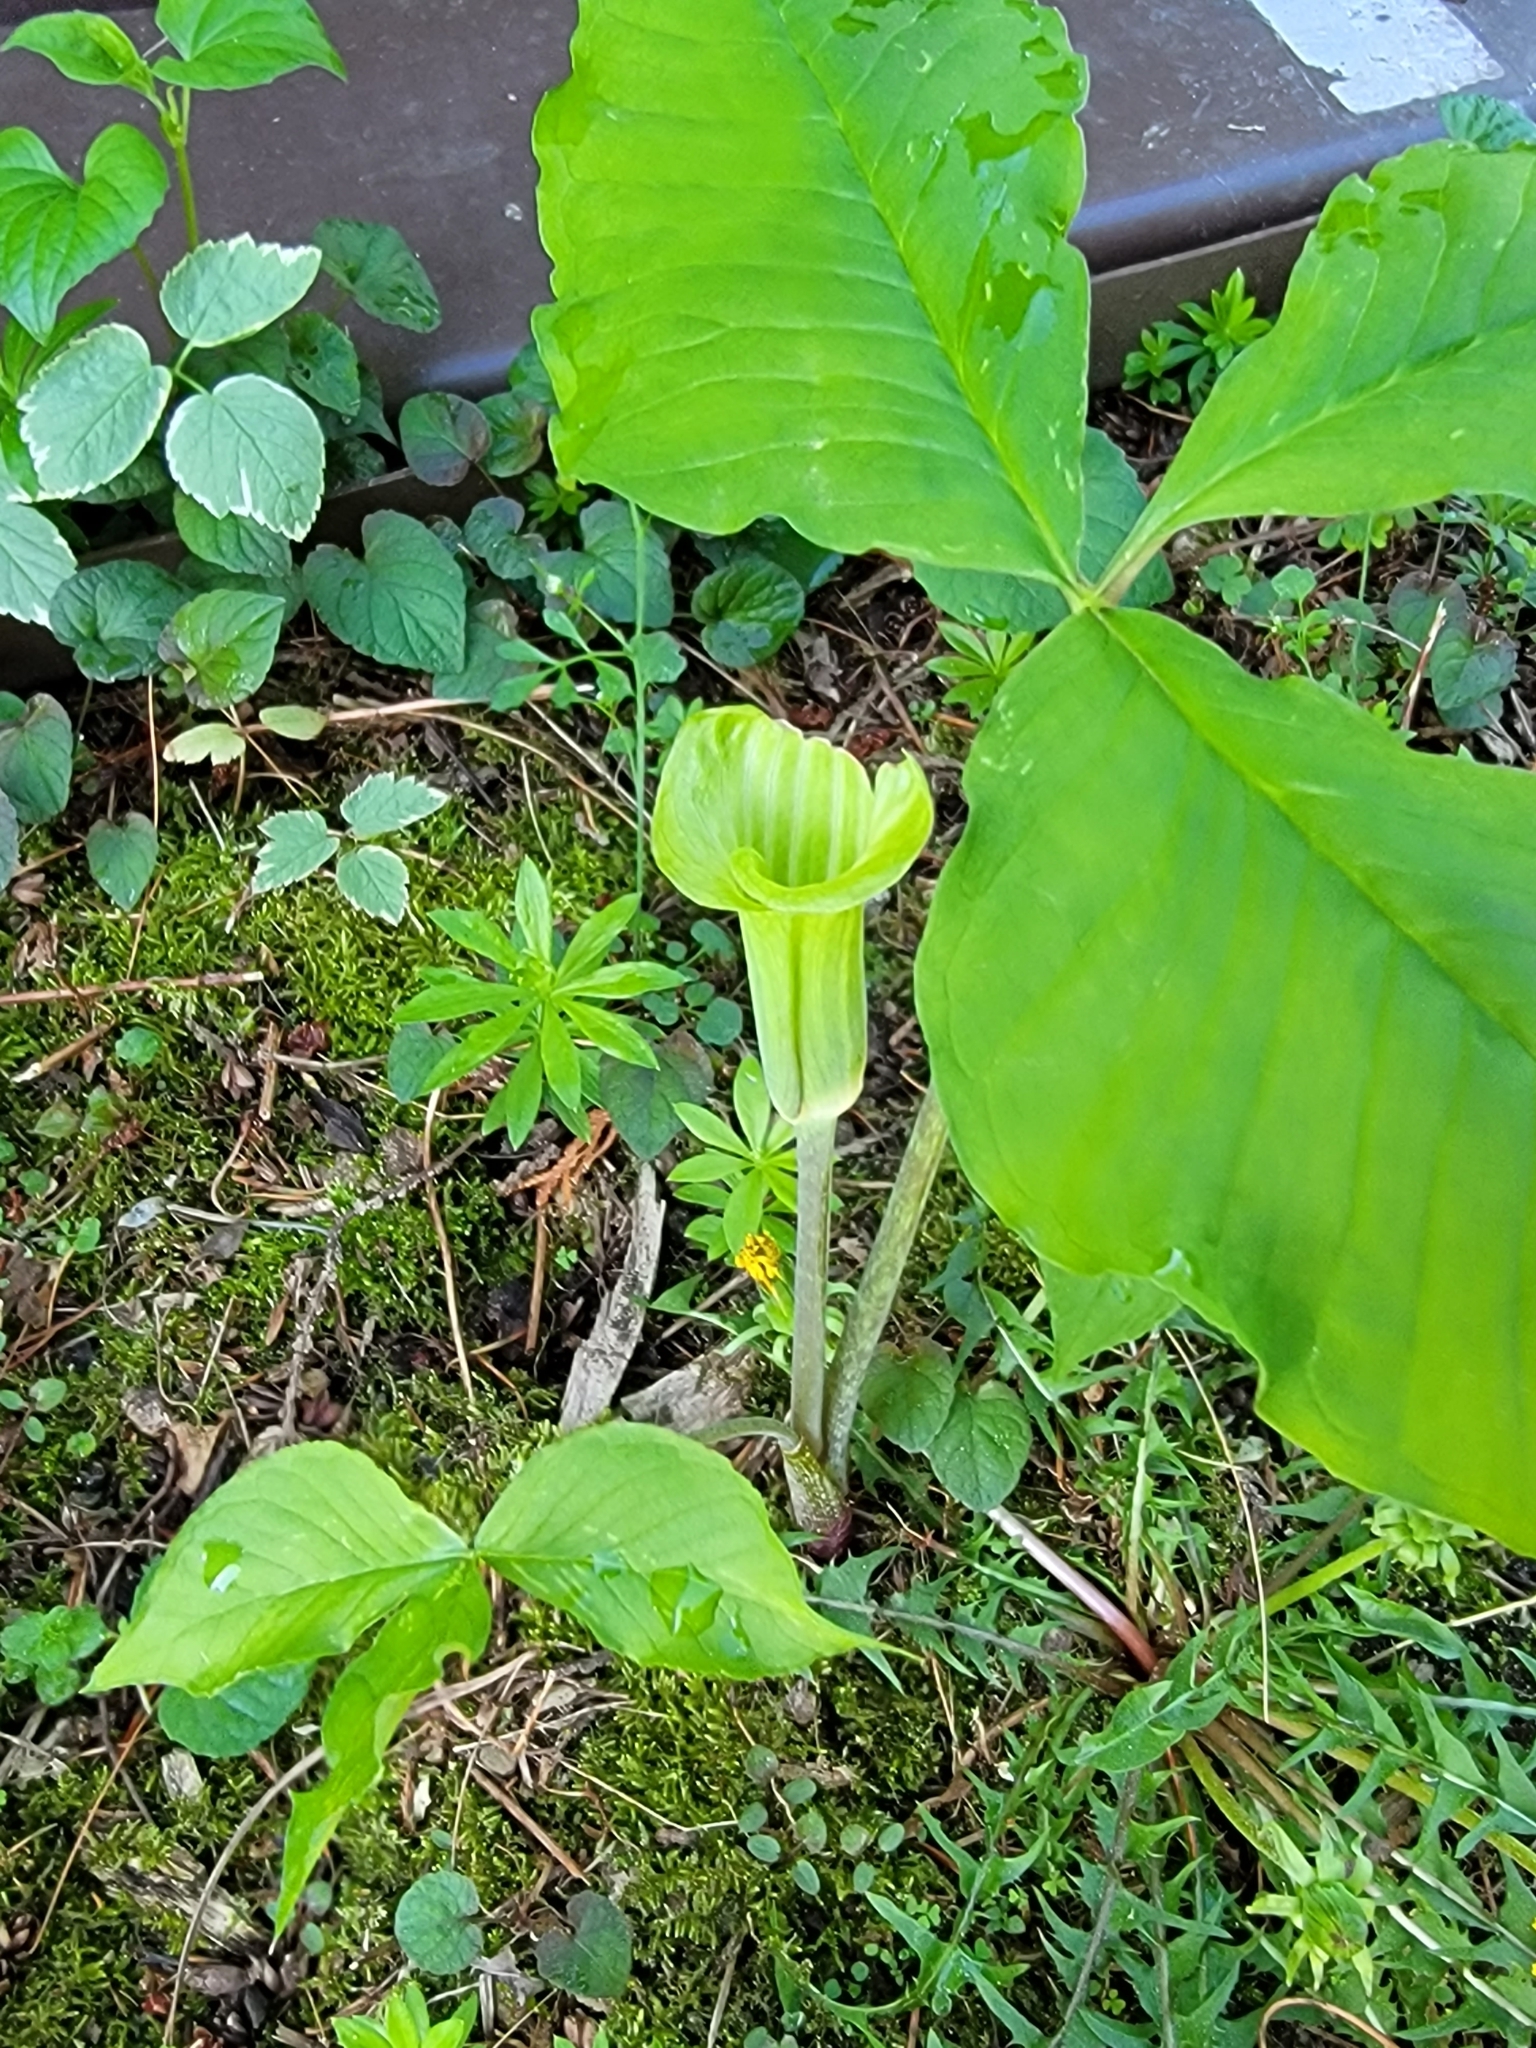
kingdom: Plantae
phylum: Tracheophyta
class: Liliopsida
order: Alismatales
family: Araceae
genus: Arisaema
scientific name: Arisaema triphyllum
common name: Jack-in-the-pulpit
